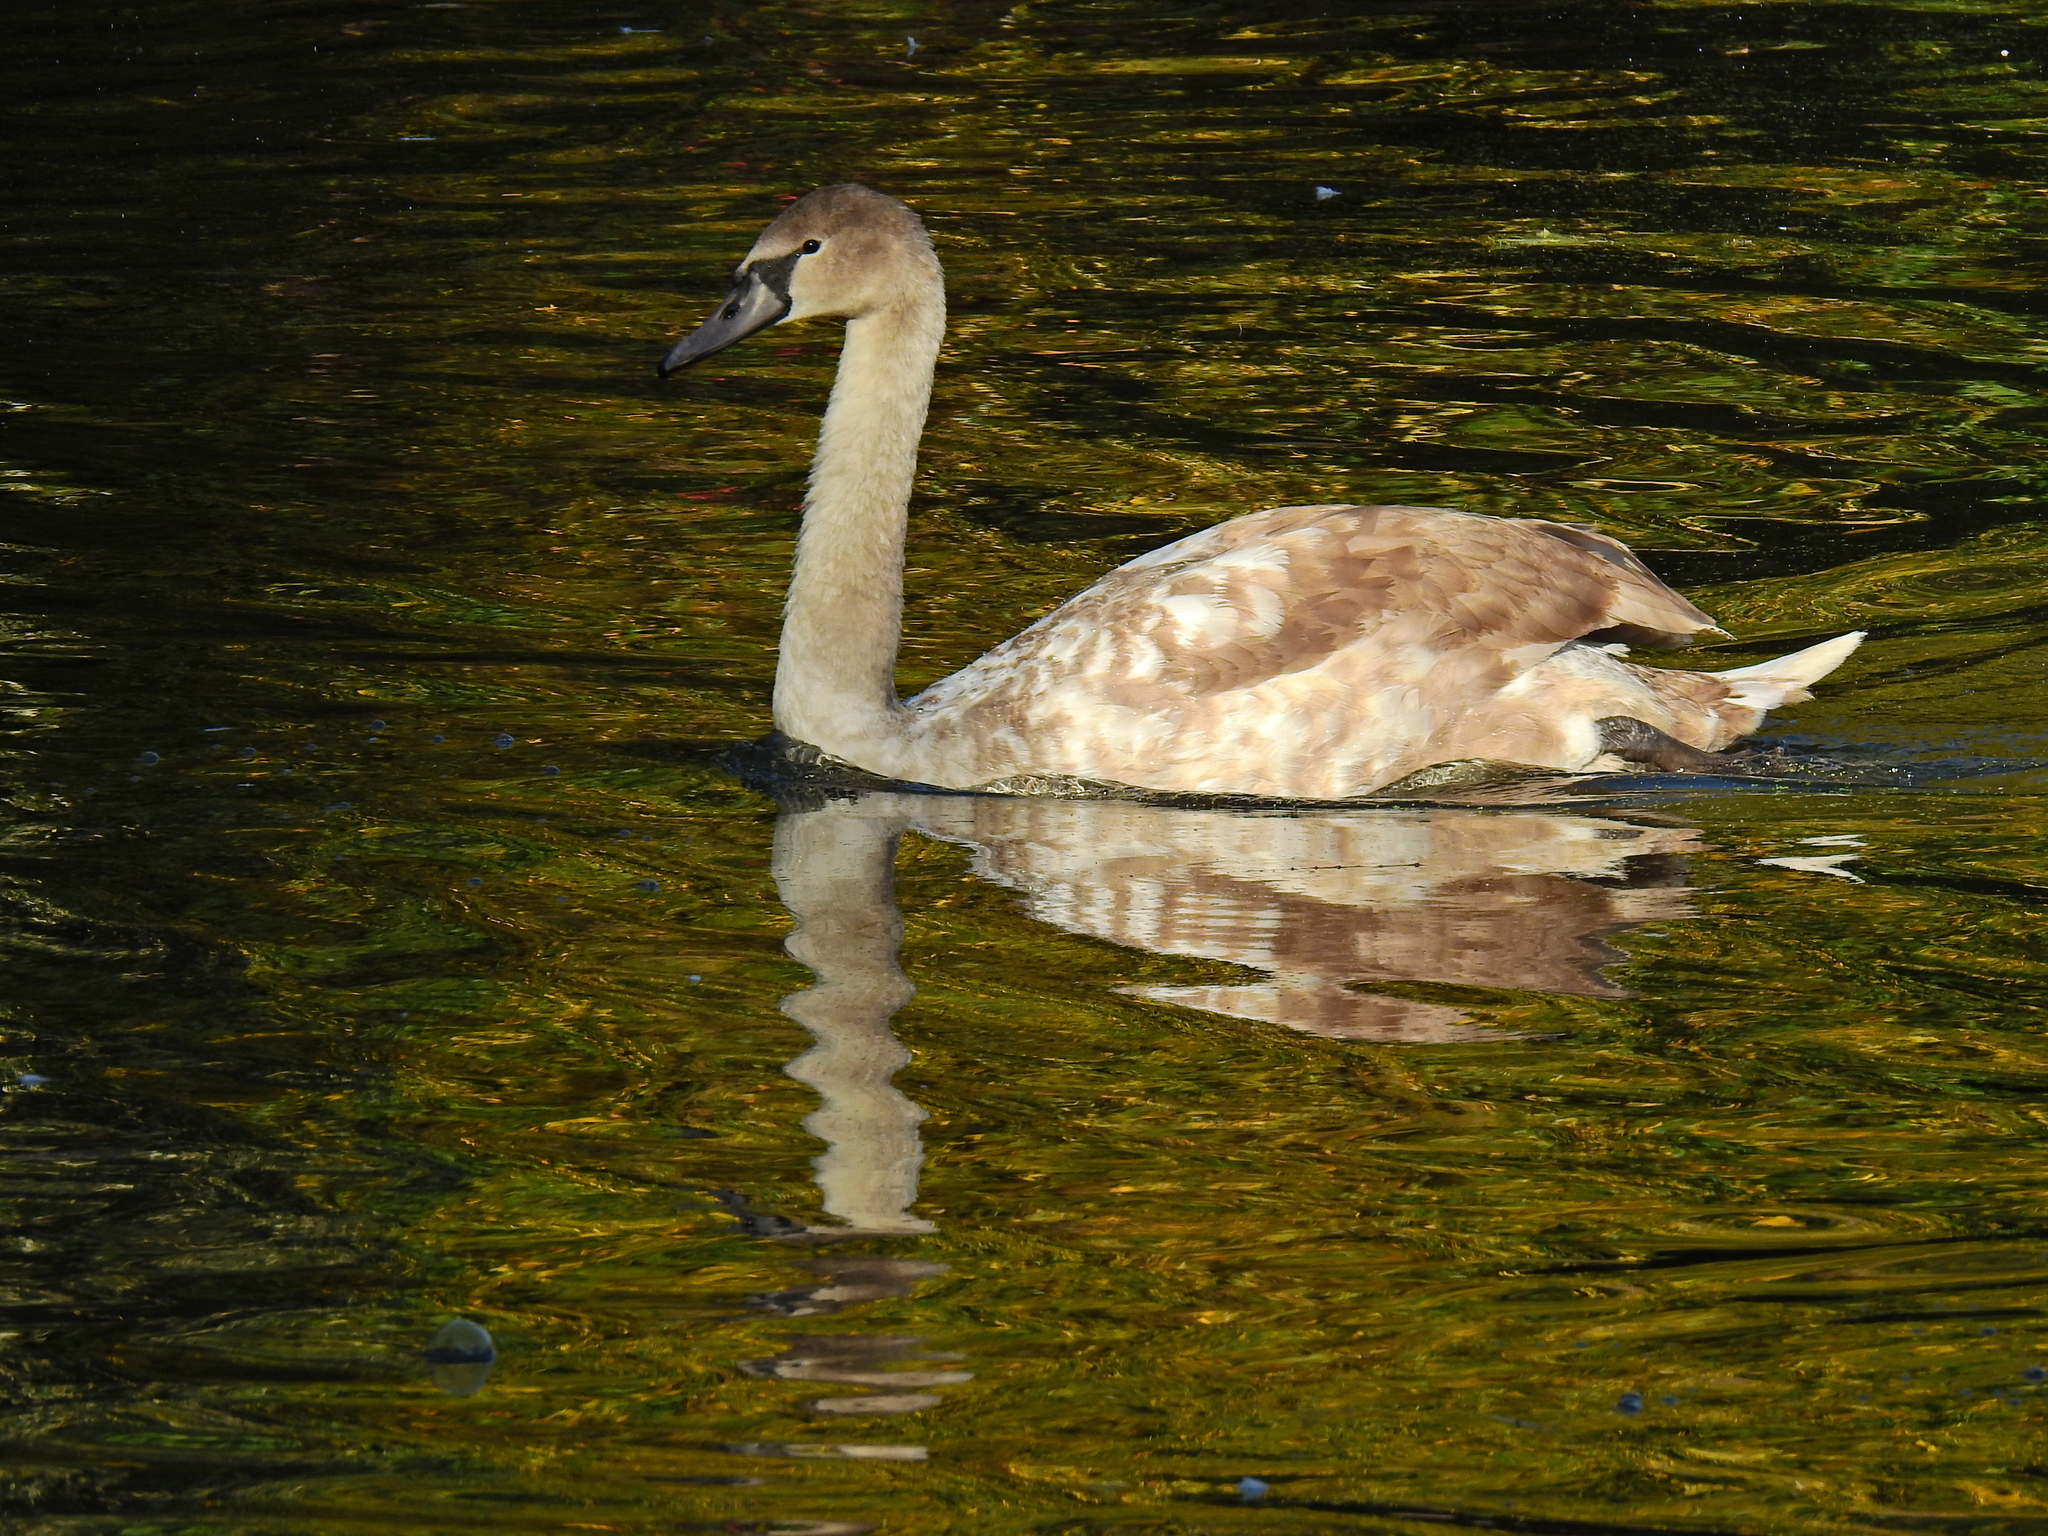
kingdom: Animalia
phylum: Chordata
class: Aves
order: Anseriformes
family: Anatidae
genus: Cygnus
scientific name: Cygnus olor
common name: Mute swan
